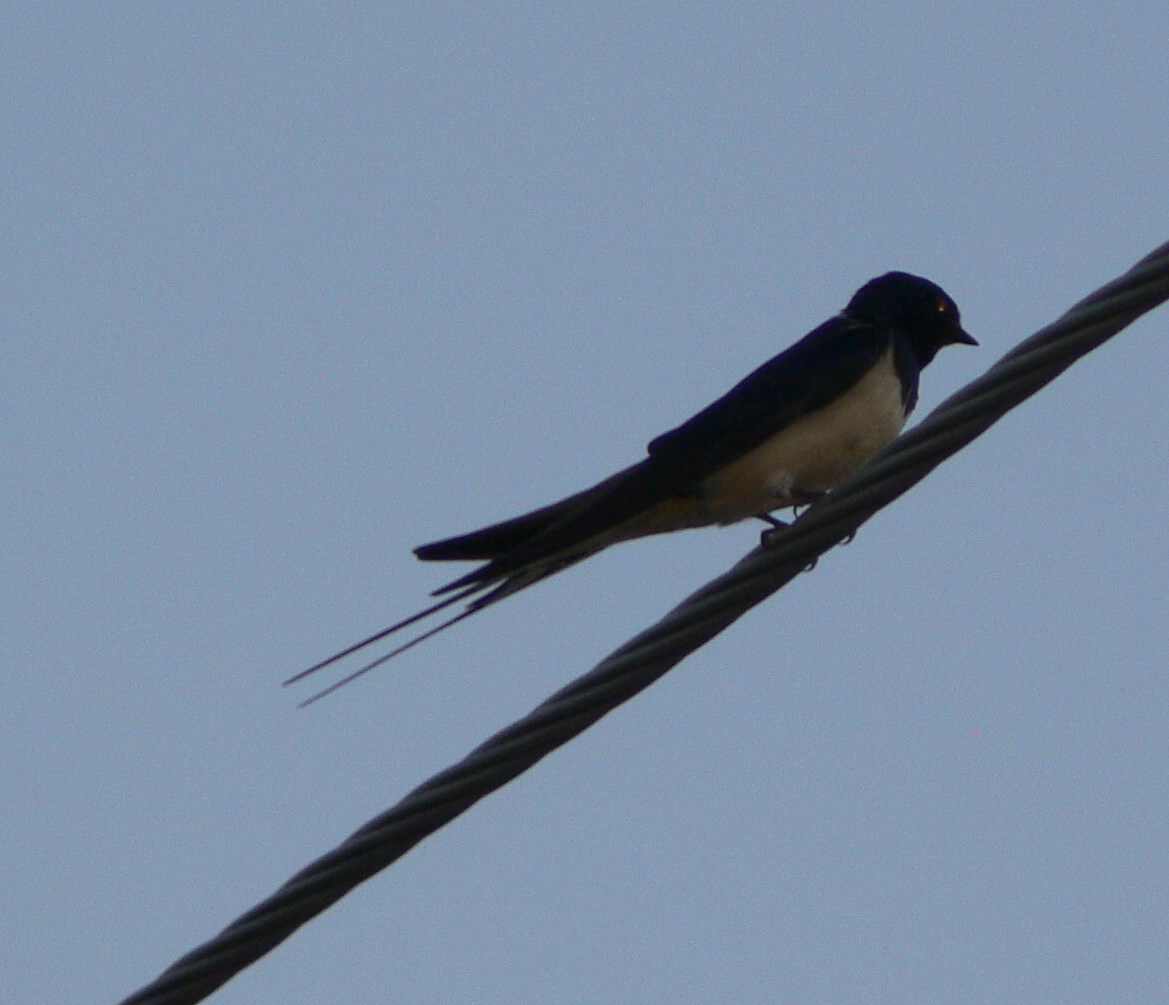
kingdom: Animalia
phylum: Chordata
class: Aves
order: Passeriformes
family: Hirundinidae
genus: Hirundo
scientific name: Hirundo rustica
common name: Barn swallow
